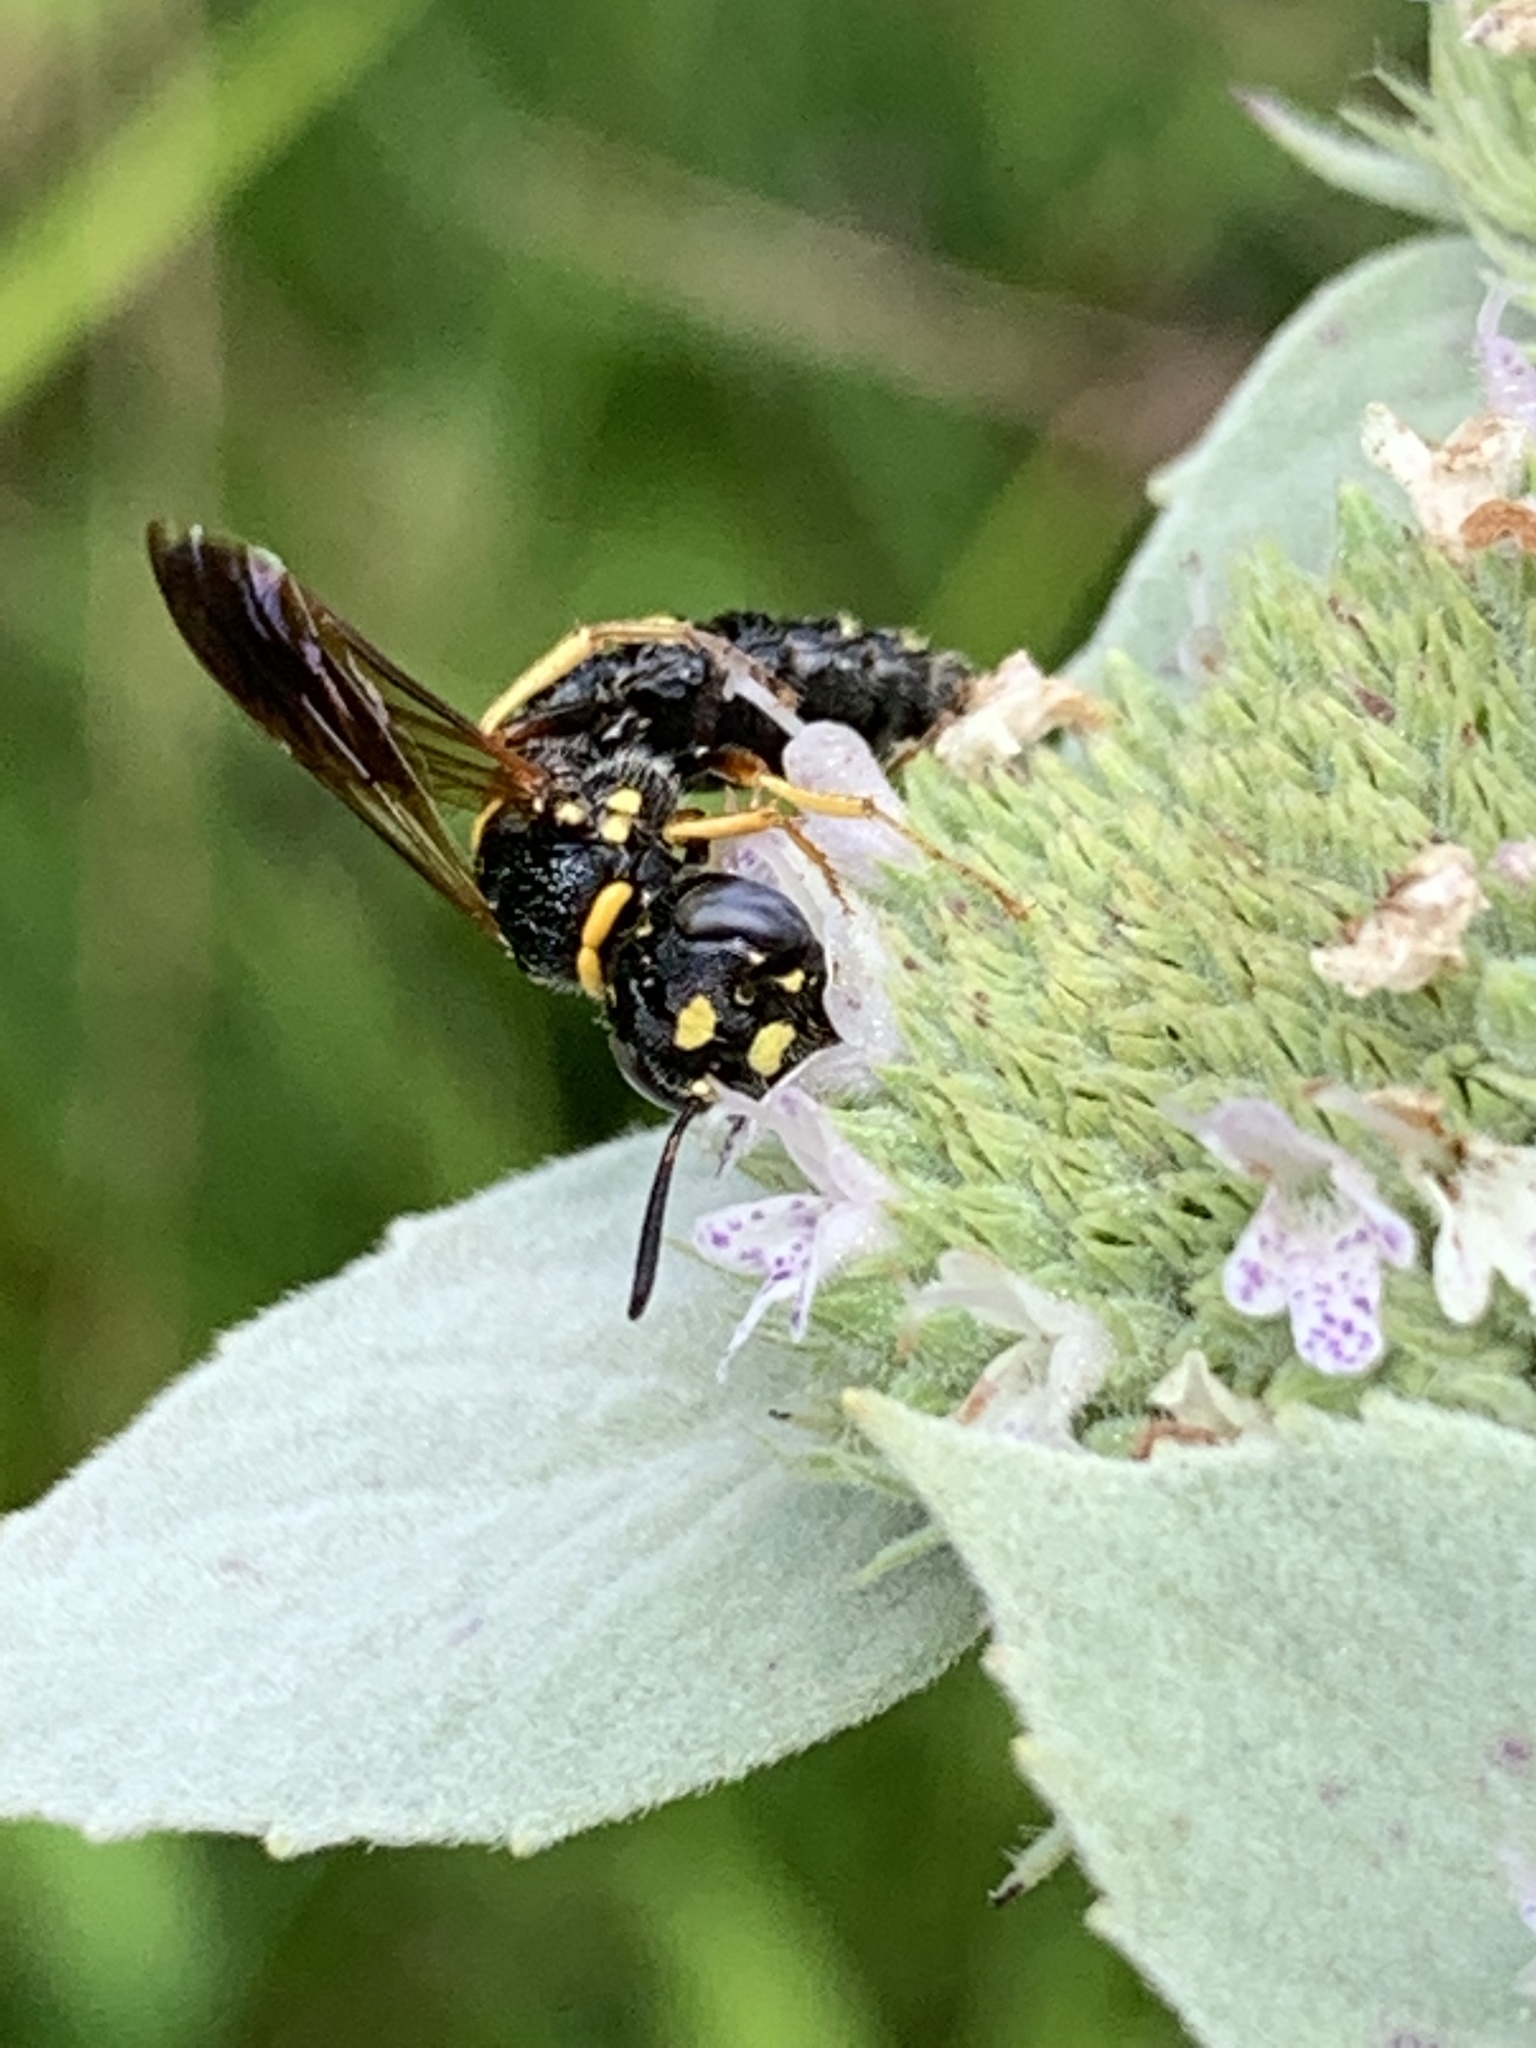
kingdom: Animalia
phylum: Arthropoda
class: Insecta
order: Hymenoptera
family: Crabronidae
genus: Philanthus
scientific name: Philanthus gibbosus
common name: Humped beewolf
